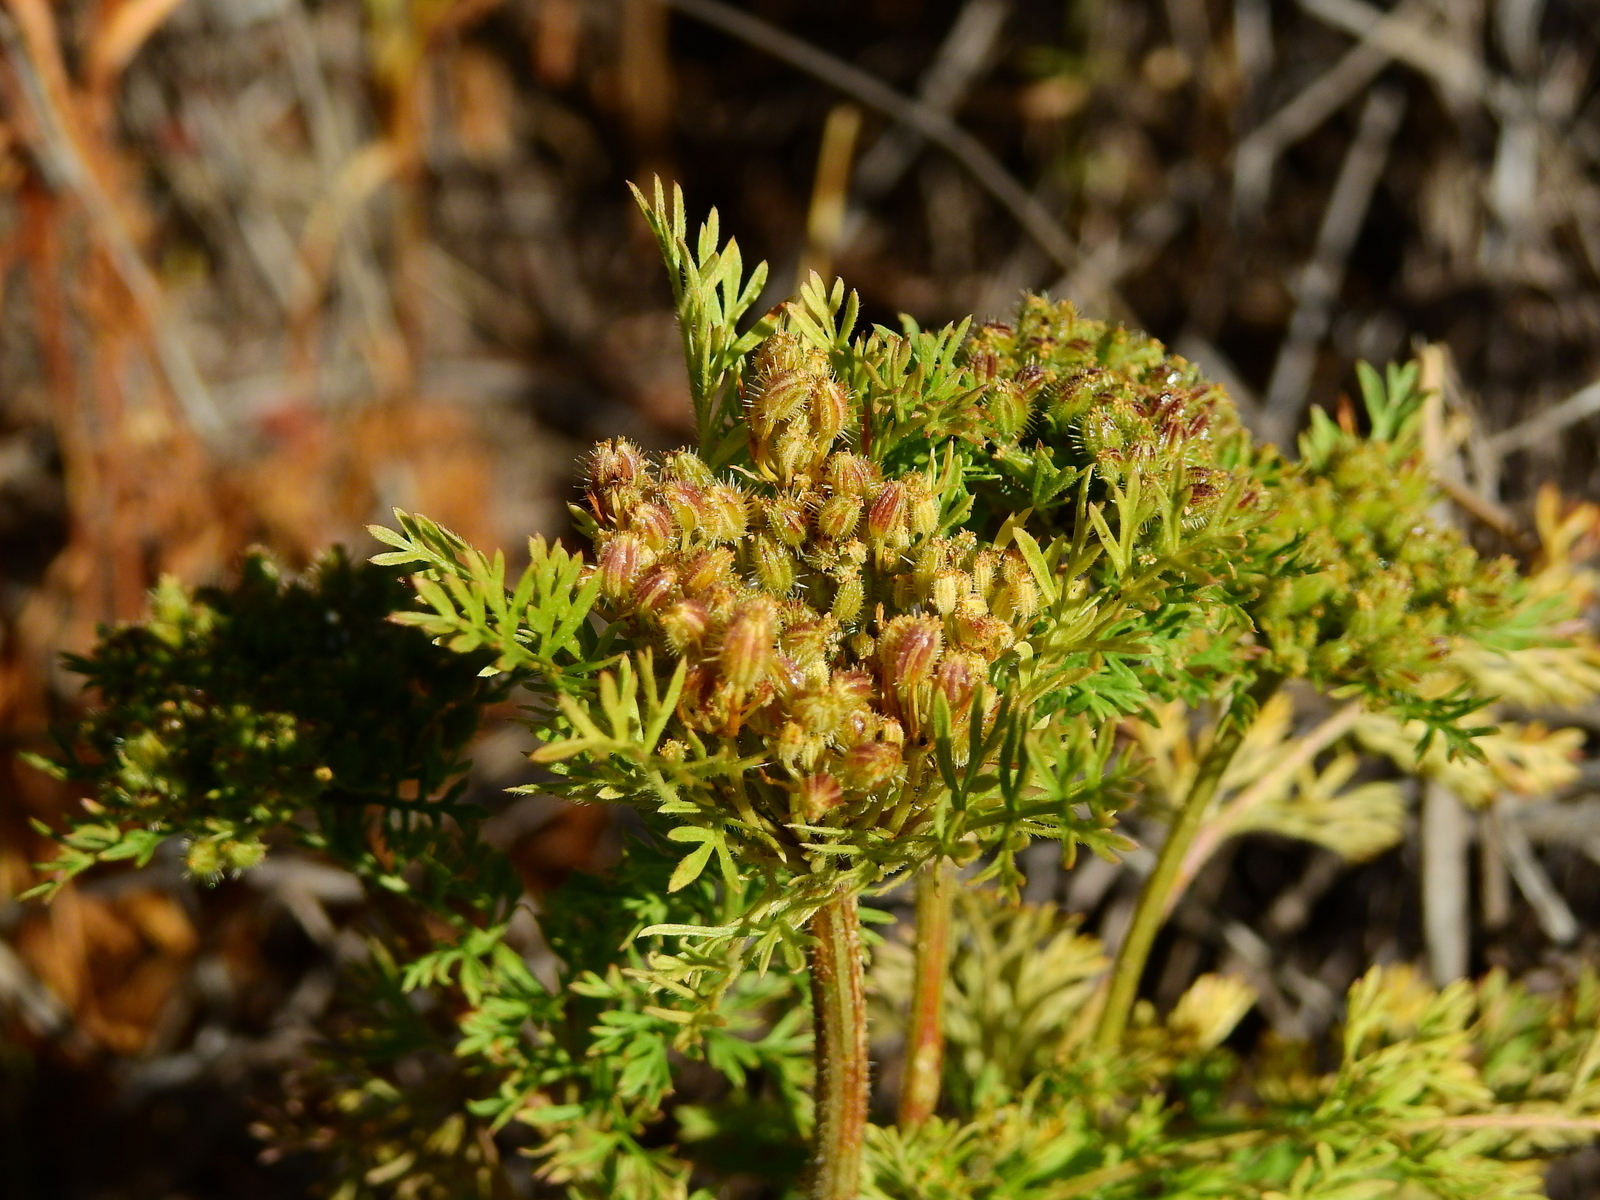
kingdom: Plantae
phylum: Tracheophyta
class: Magnoliopsida
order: Apiales
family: Apiaceae
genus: Daucus
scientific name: Daucus pusillus
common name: Southwest wild carrot
